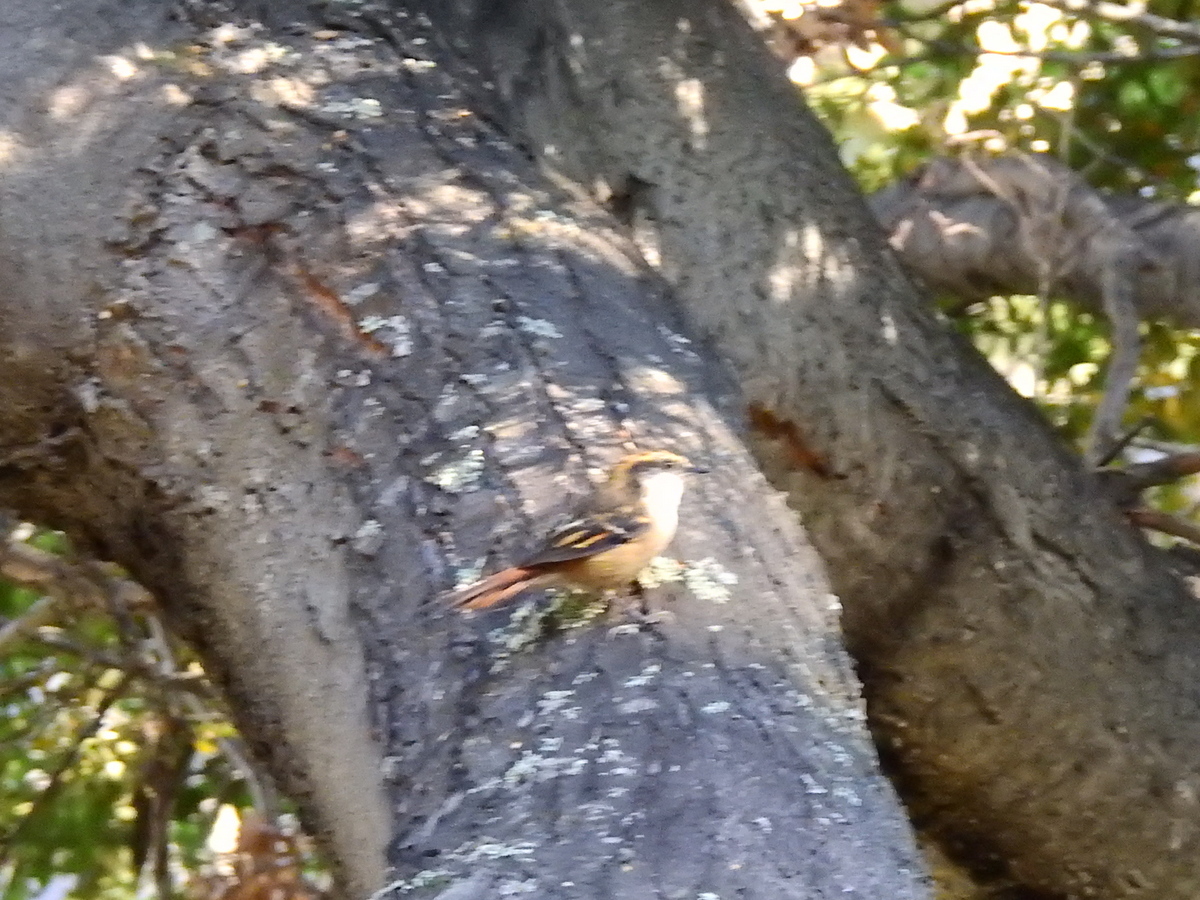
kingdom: Animalia
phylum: Chordata
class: Aves
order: Passeriformes
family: Furnariidae
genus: Aphrastura
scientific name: Aphrastura spinicauda
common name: Thorn-tailed rayadito
